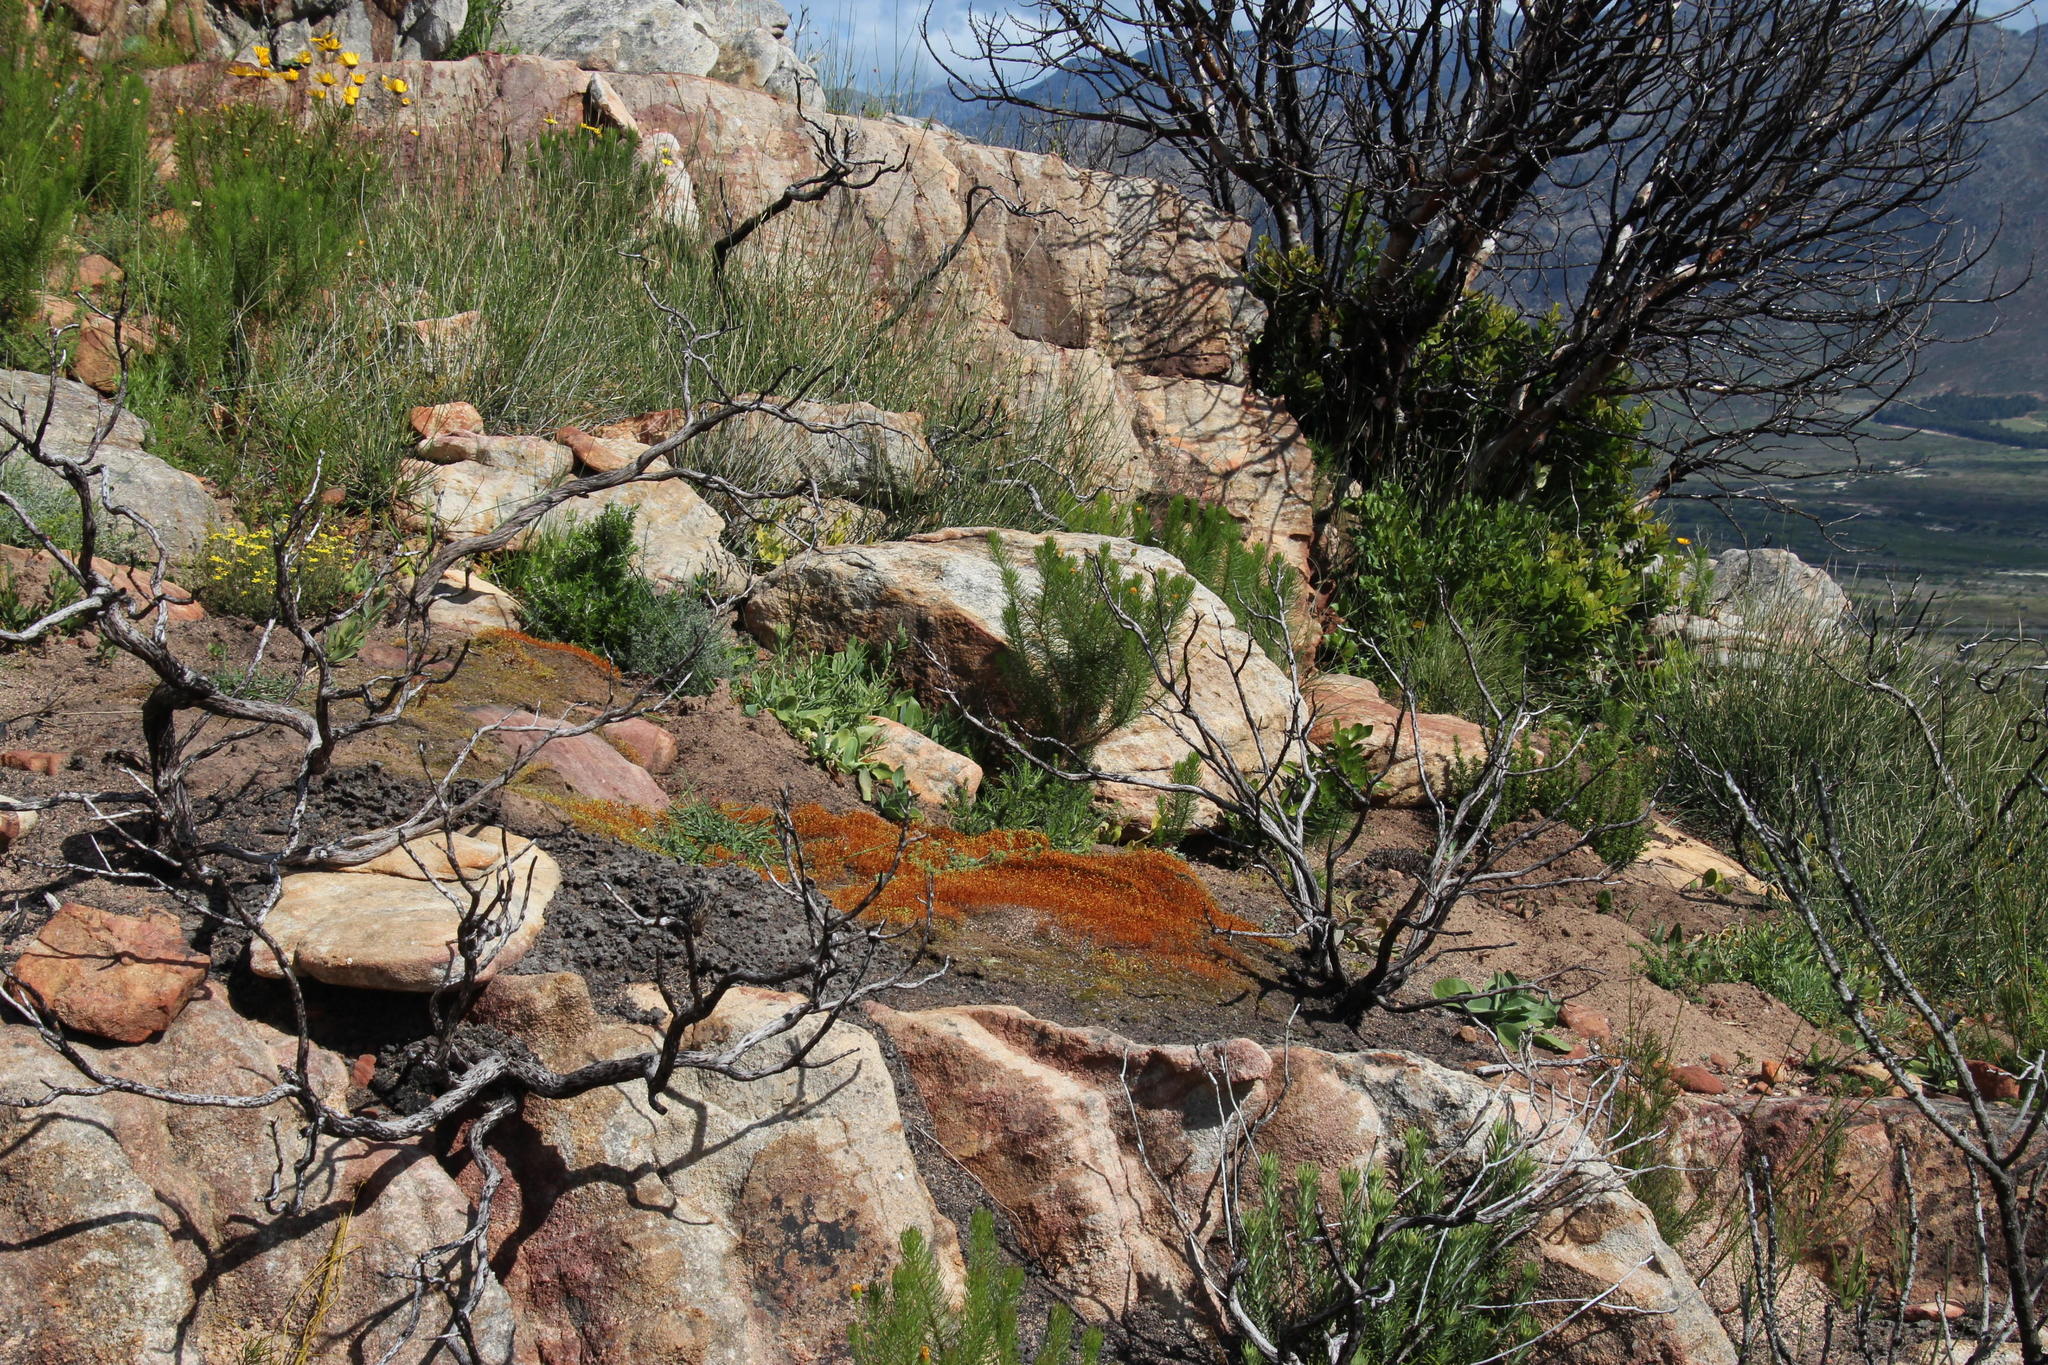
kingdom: Plantae
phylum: Bryophyta
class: Bryopsida
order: Funariales
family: Funariaceae
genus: Funaria
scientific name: Funaria hygrometrica
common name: Common cord moss
